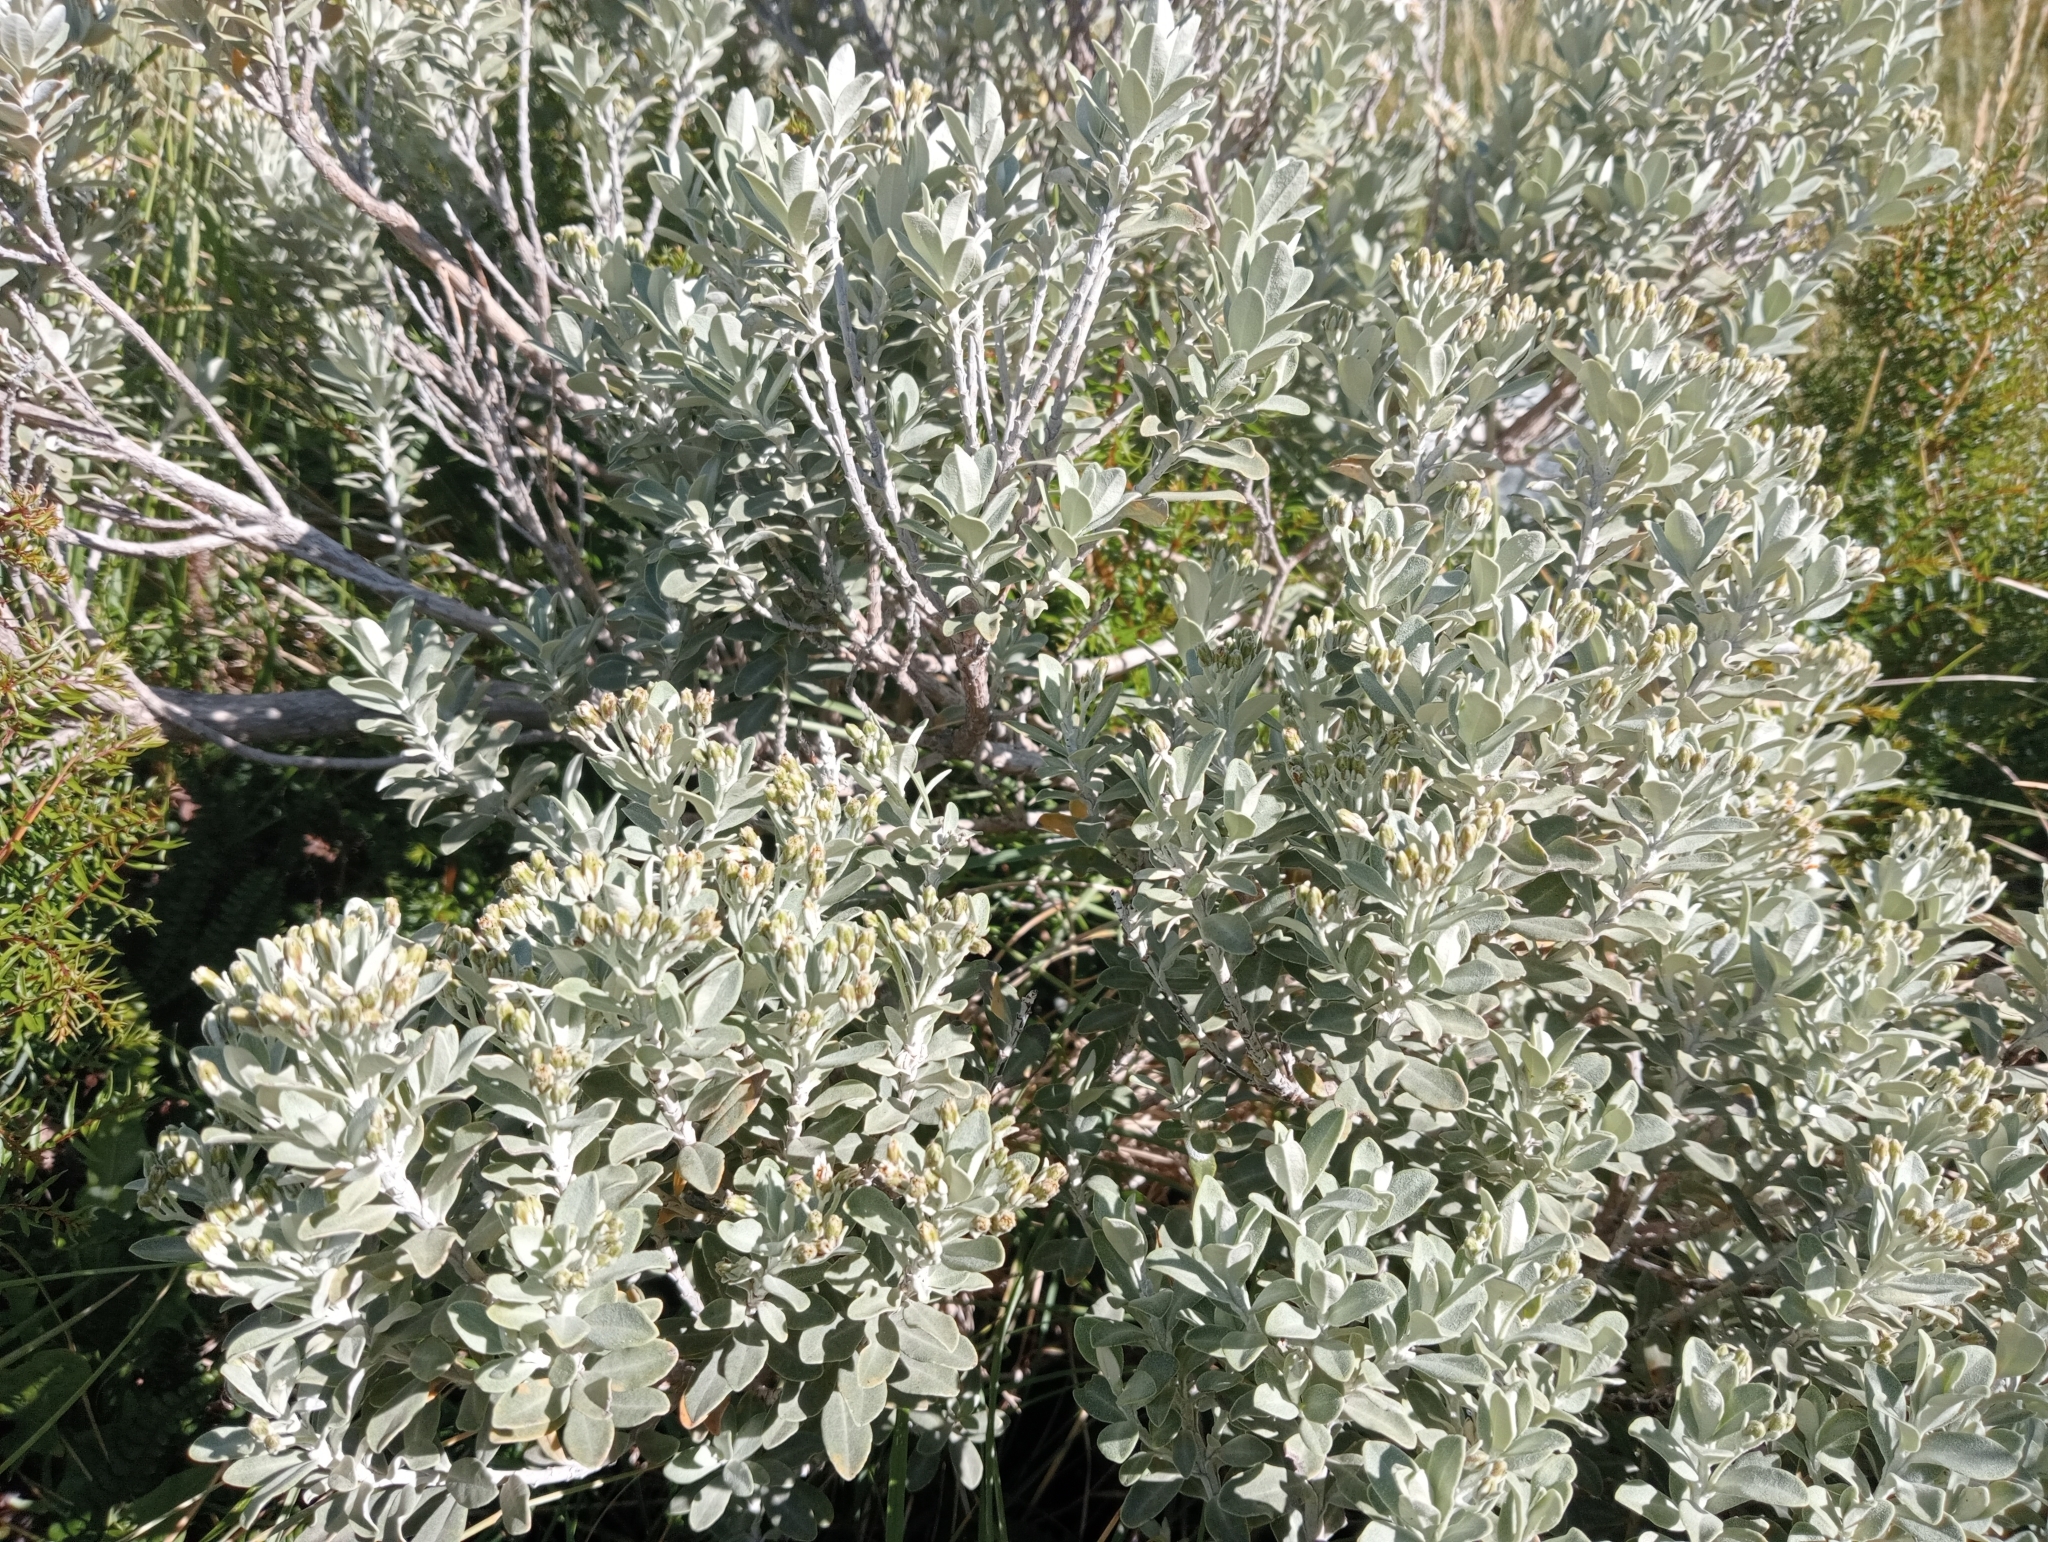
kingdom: Plantae
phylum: Tracheophyta
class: Magnoliopsida
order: Asterales
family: Asteraceae
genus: Olearia
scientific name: Olearia moschata
